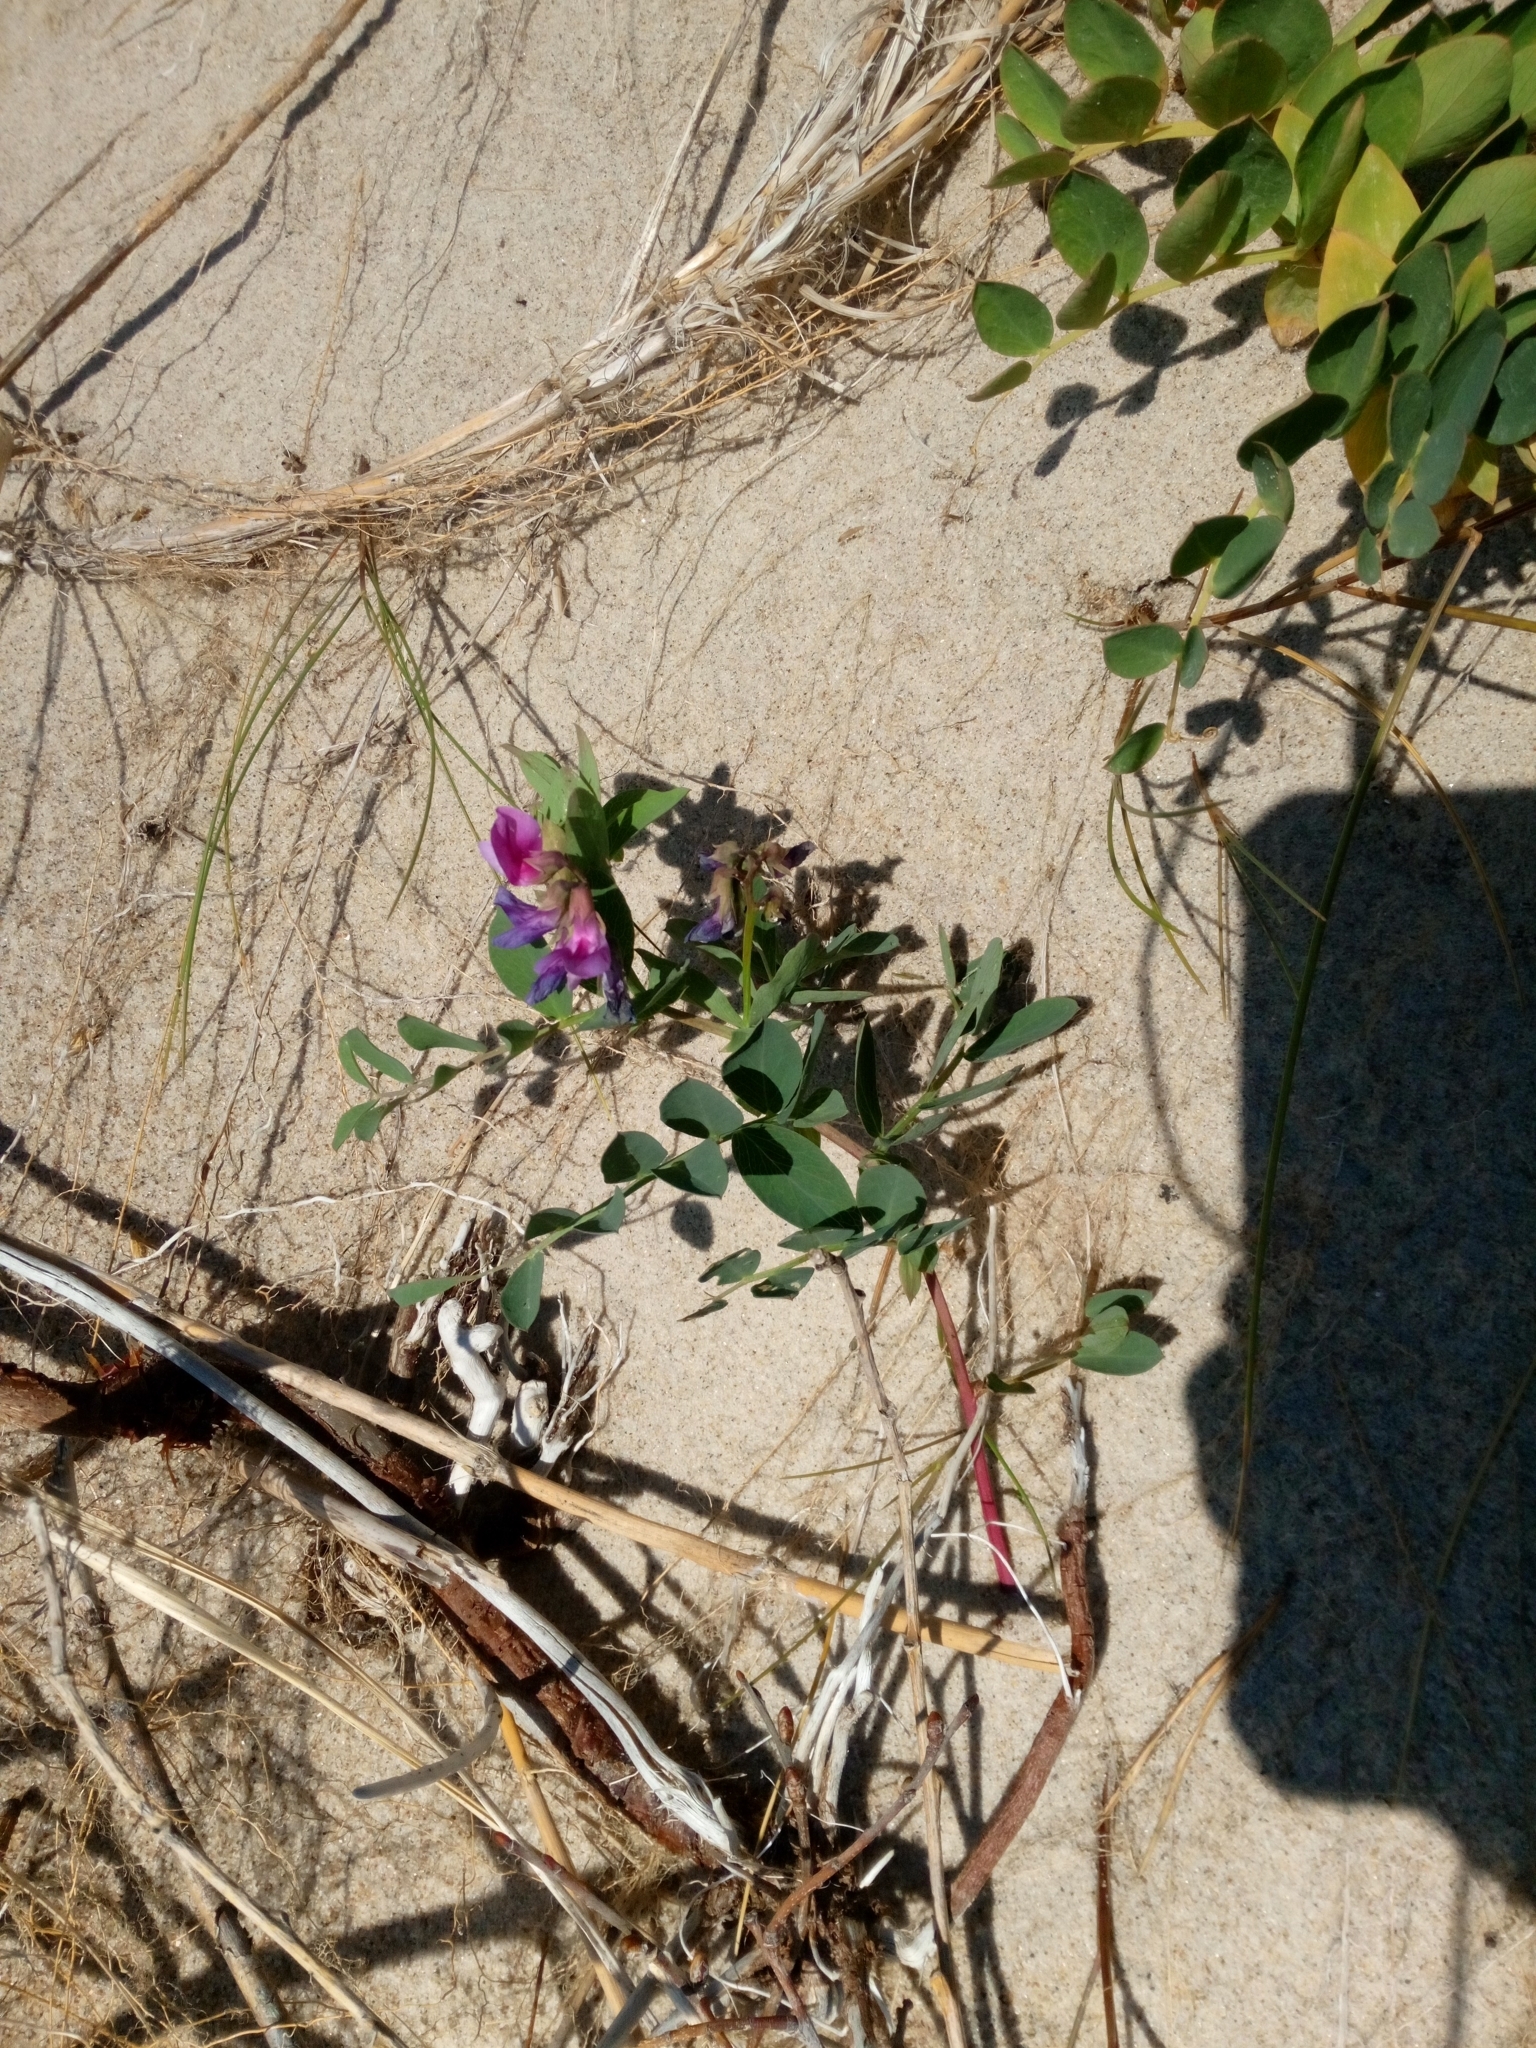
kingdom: Plantae
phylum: Tracheophyta
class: Magnoliopsida
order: Fabales
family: Fabaceae
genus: Lathyrus
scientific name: Lathyrus japonicus
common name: Sea pea
